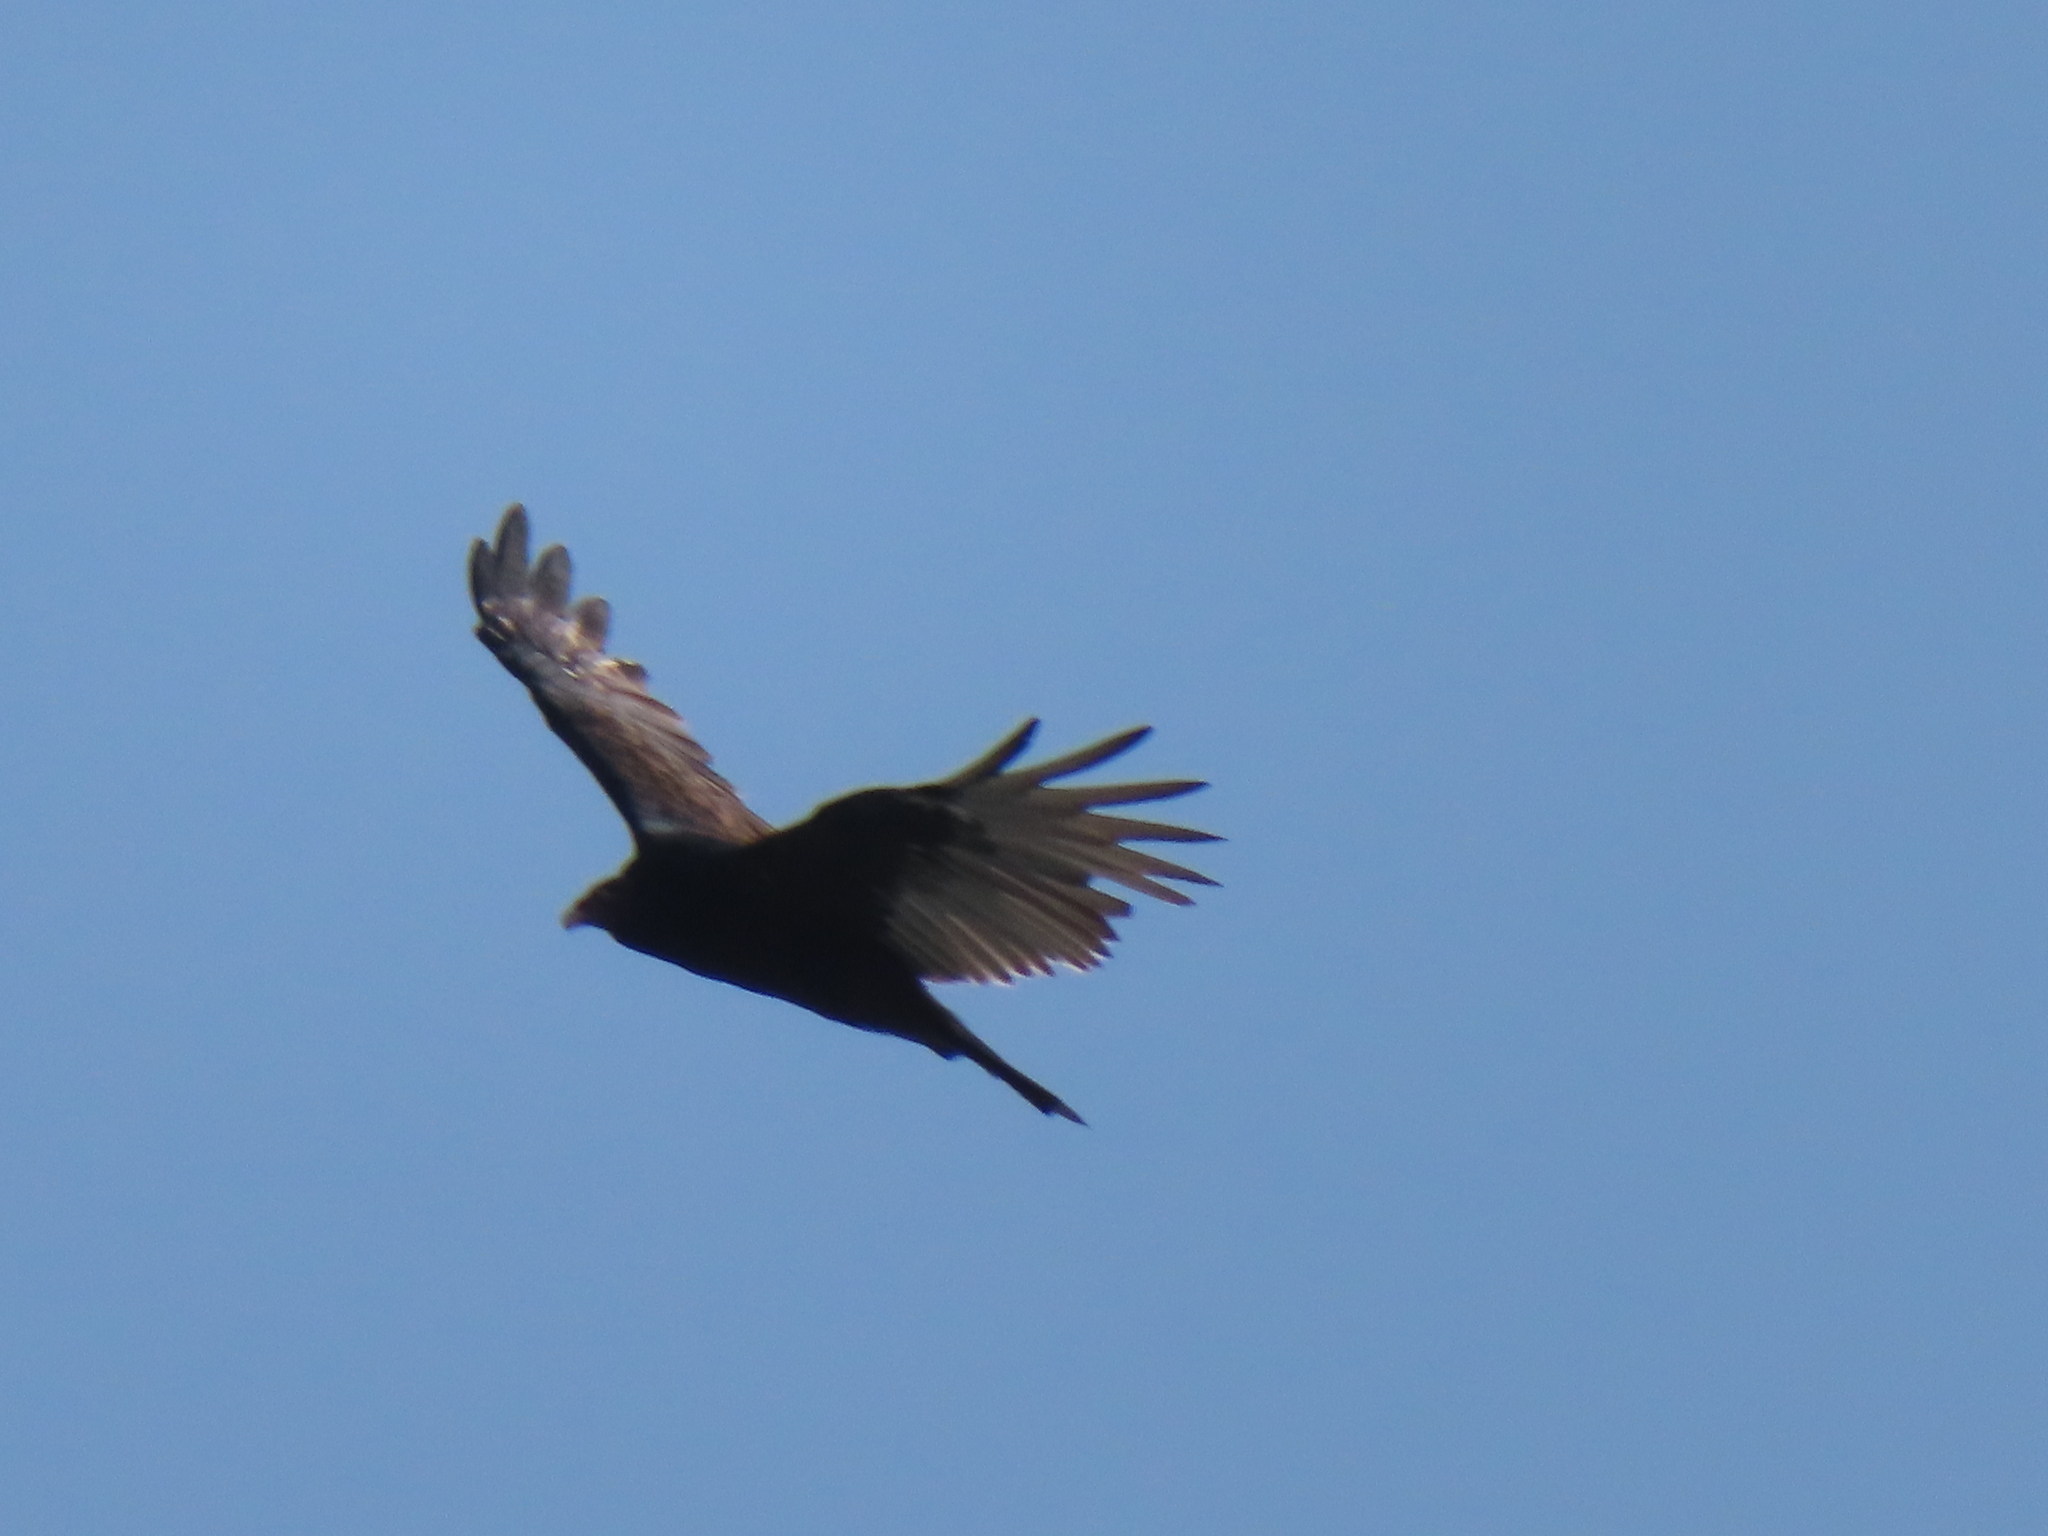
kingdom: Animalia
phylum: Chordata
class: Aves
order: Accipitriformes
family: Cathartidae
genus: Cathartes
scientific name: Cathartes aura
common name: Turkey vulture
